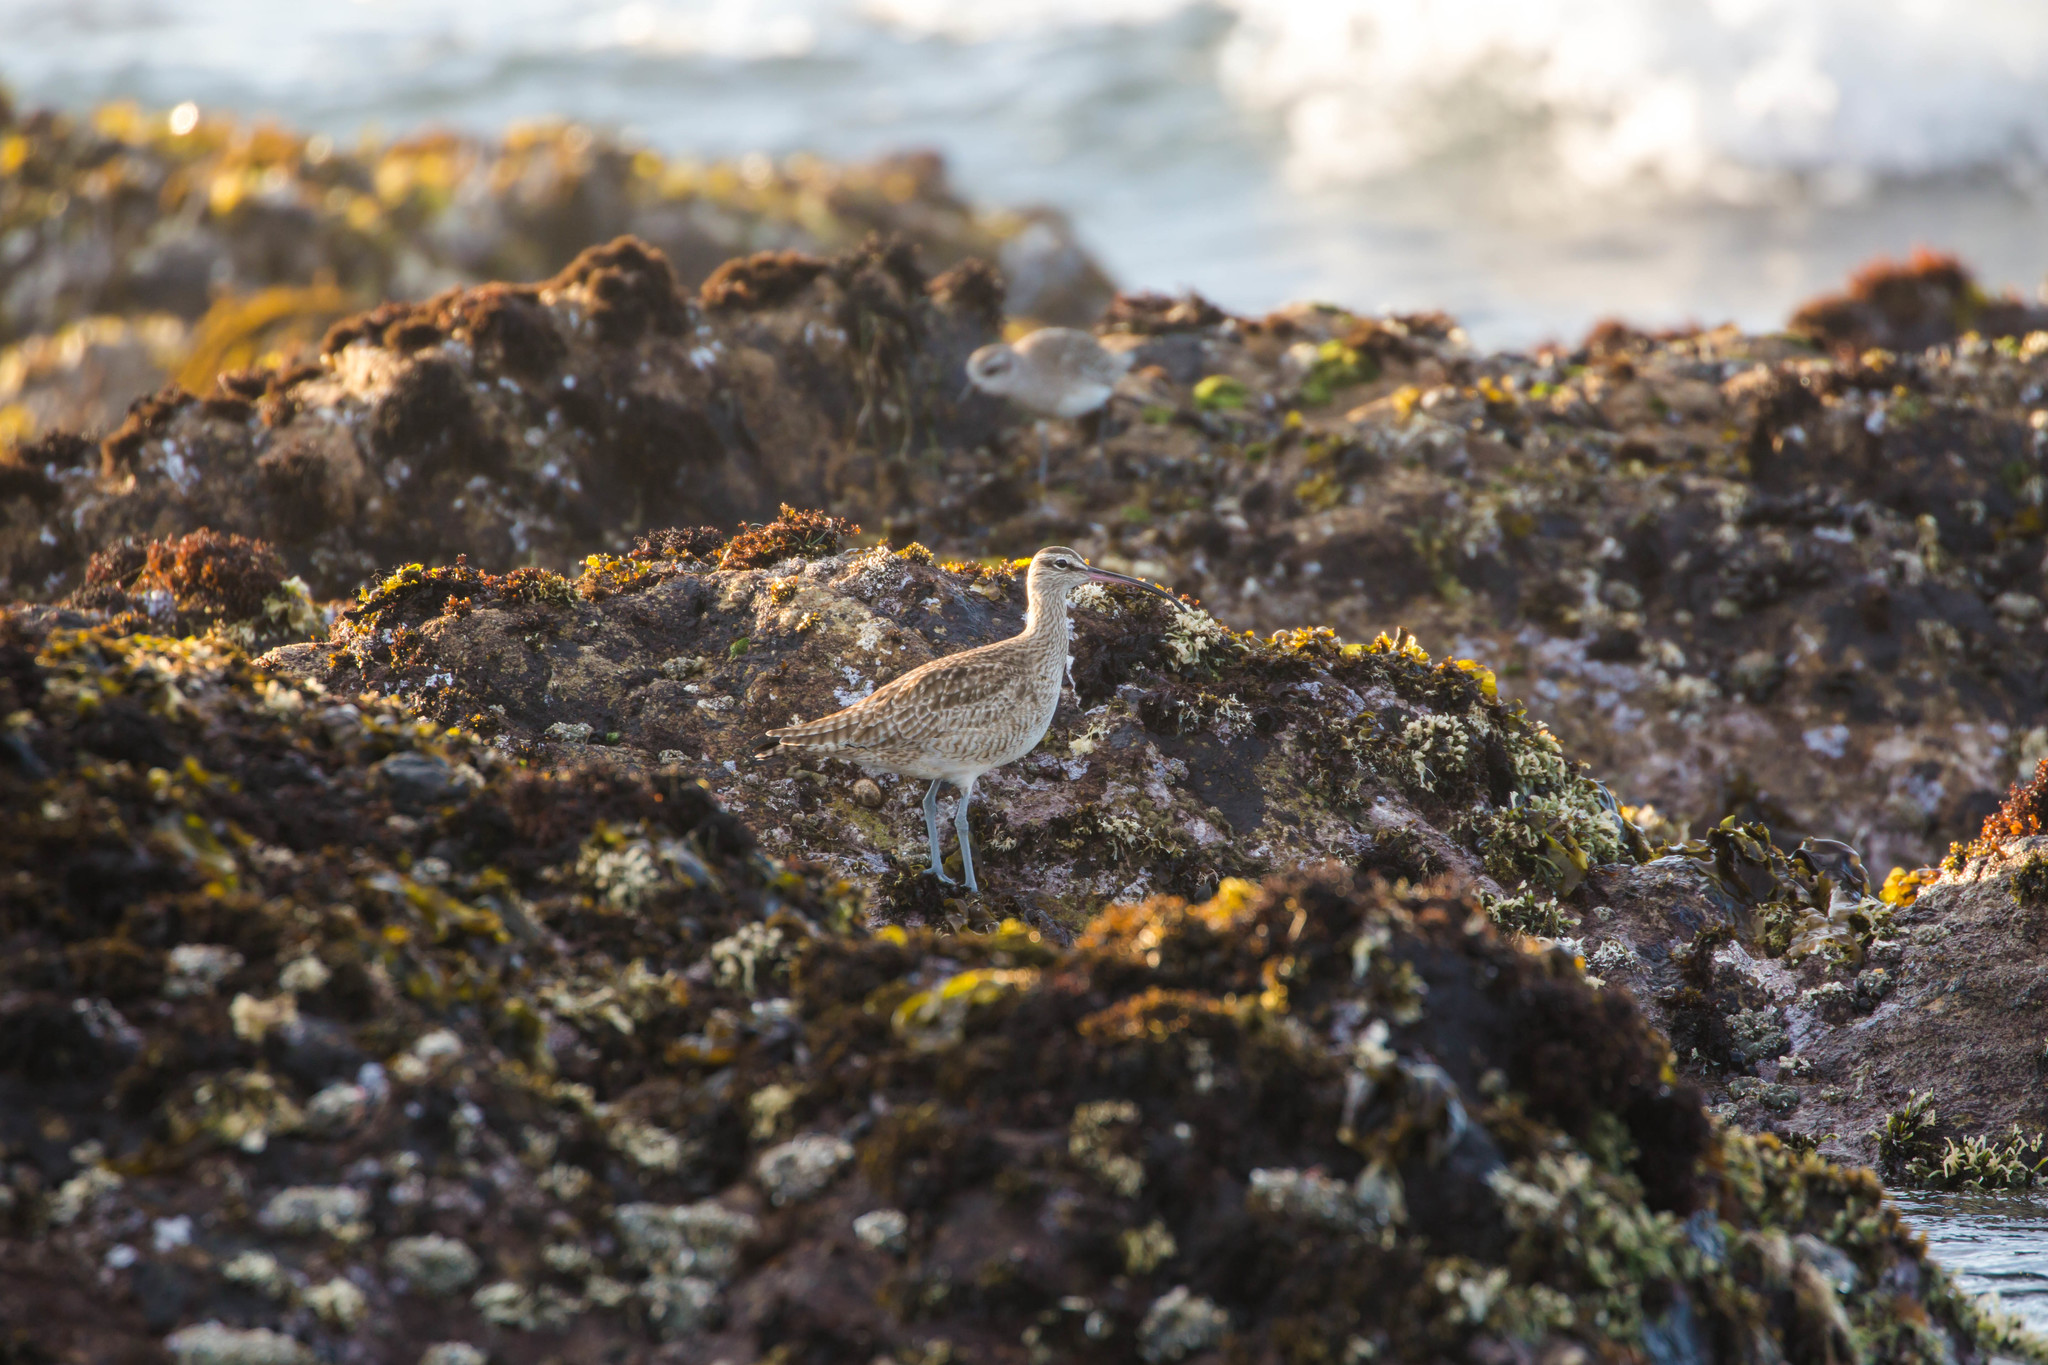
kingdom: Animalia
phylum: Chordata
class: Aves
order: Charadriiformes
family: Scolopacidae
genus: Numenius
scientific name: Numenius phaeopus
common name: Whimbrel
